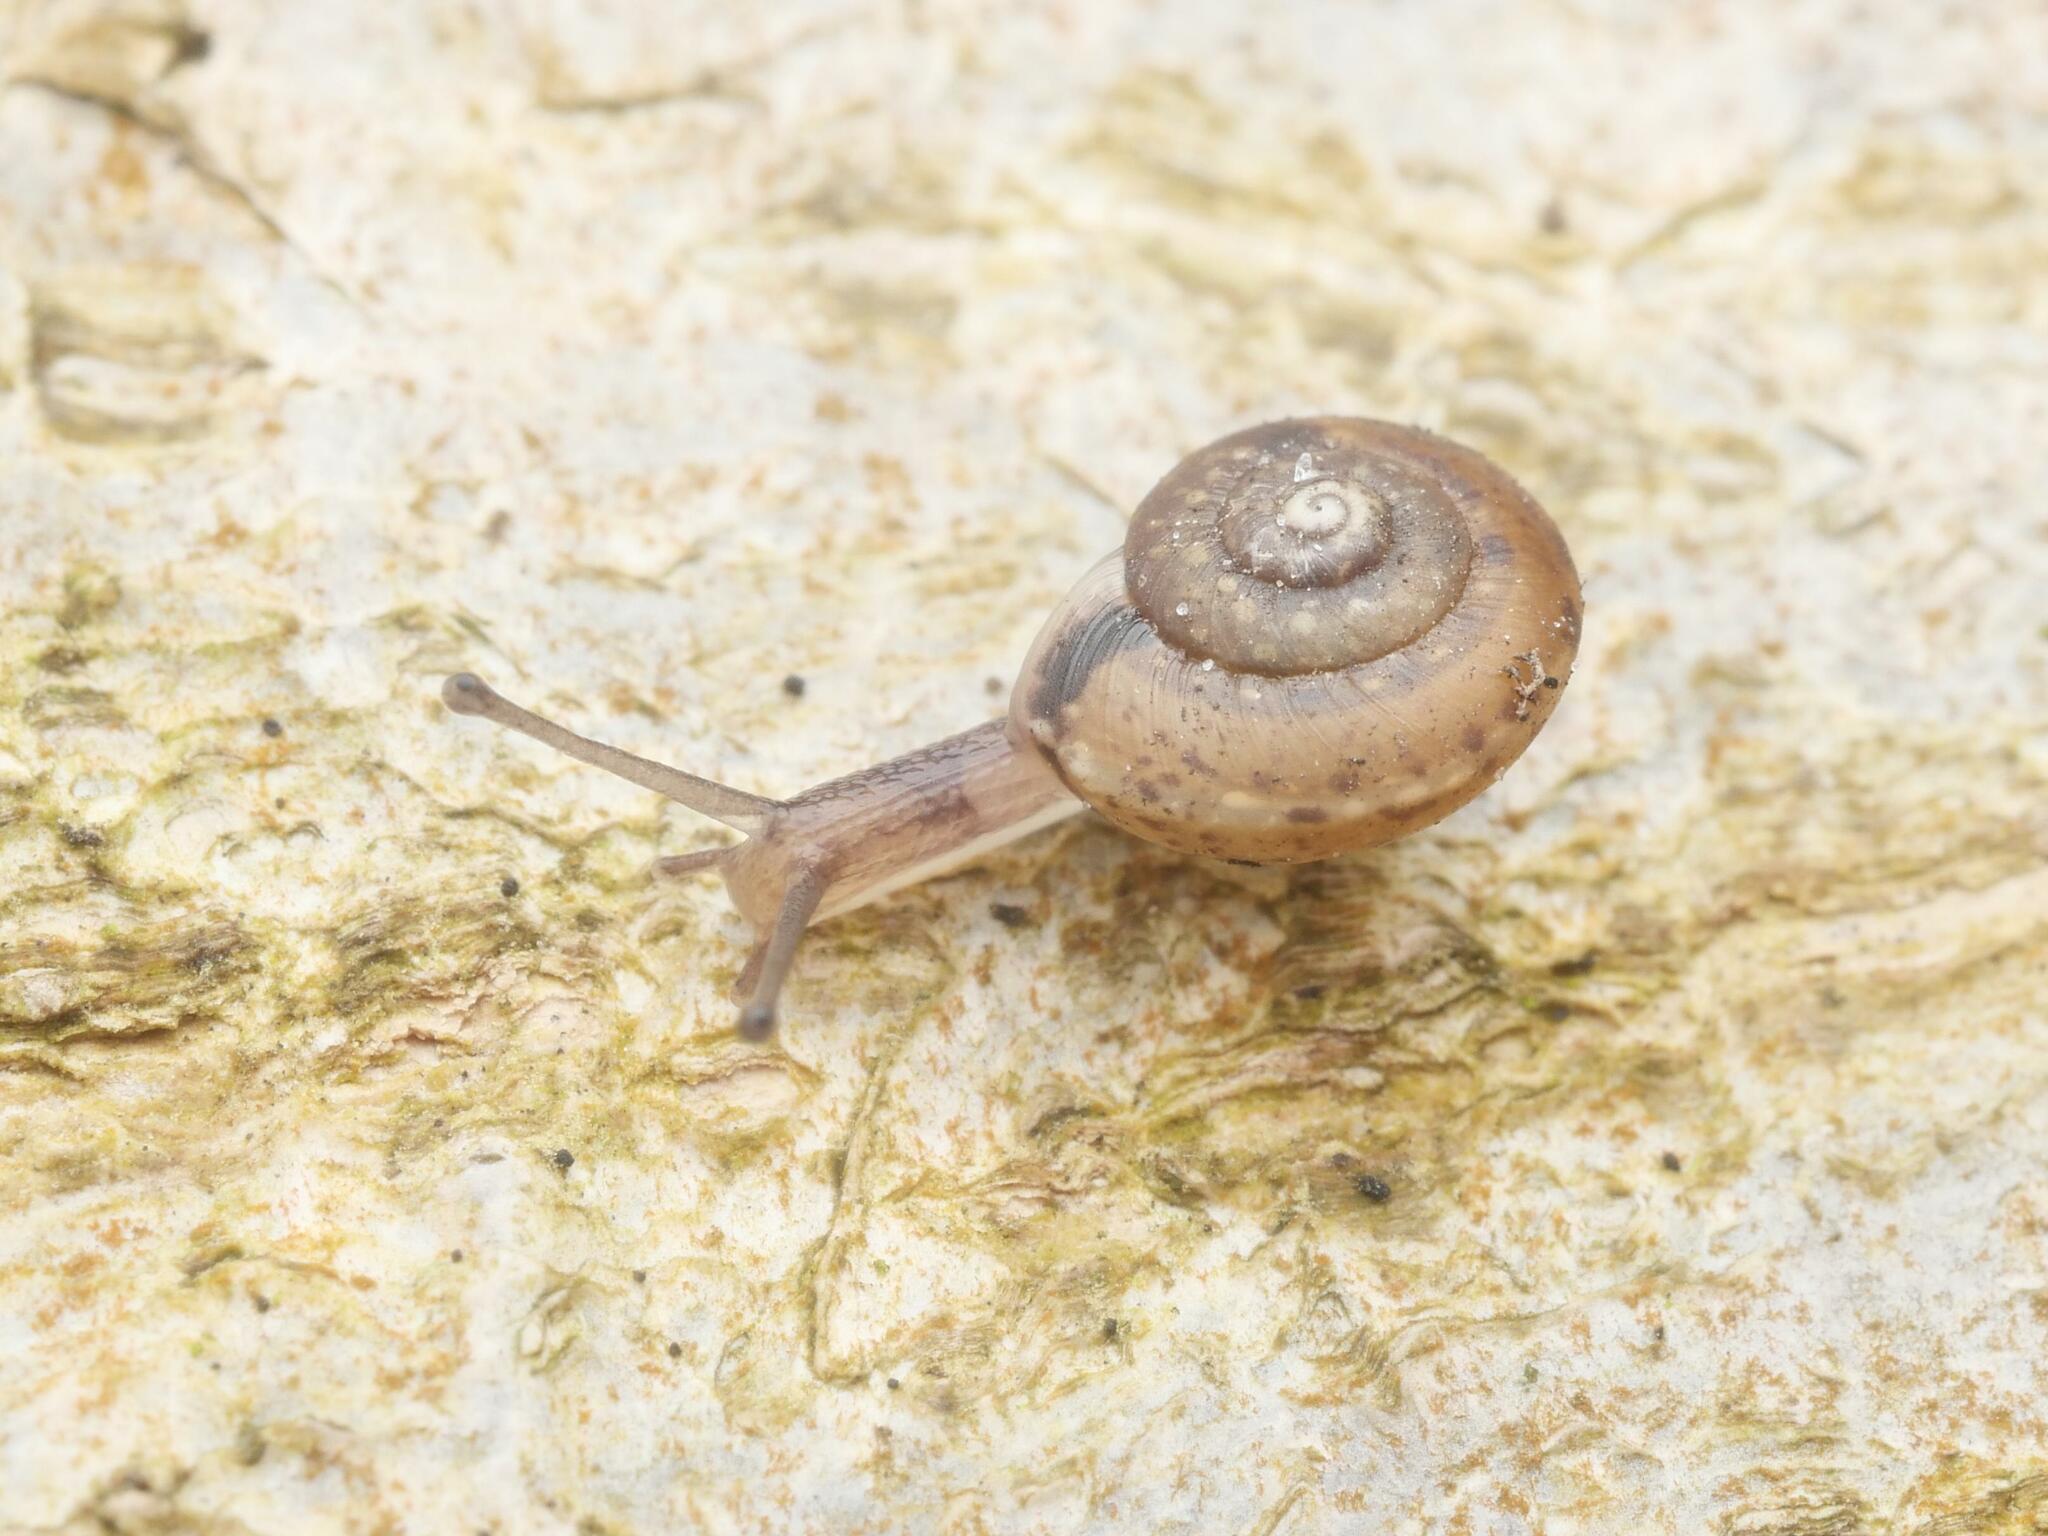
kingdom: Animalia
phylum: Mollusca
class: Gastropoda
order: Stylommatophora
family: Hygromiidae
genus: Hygromia
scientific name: Hygromia cinctella
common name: Girdled snail
